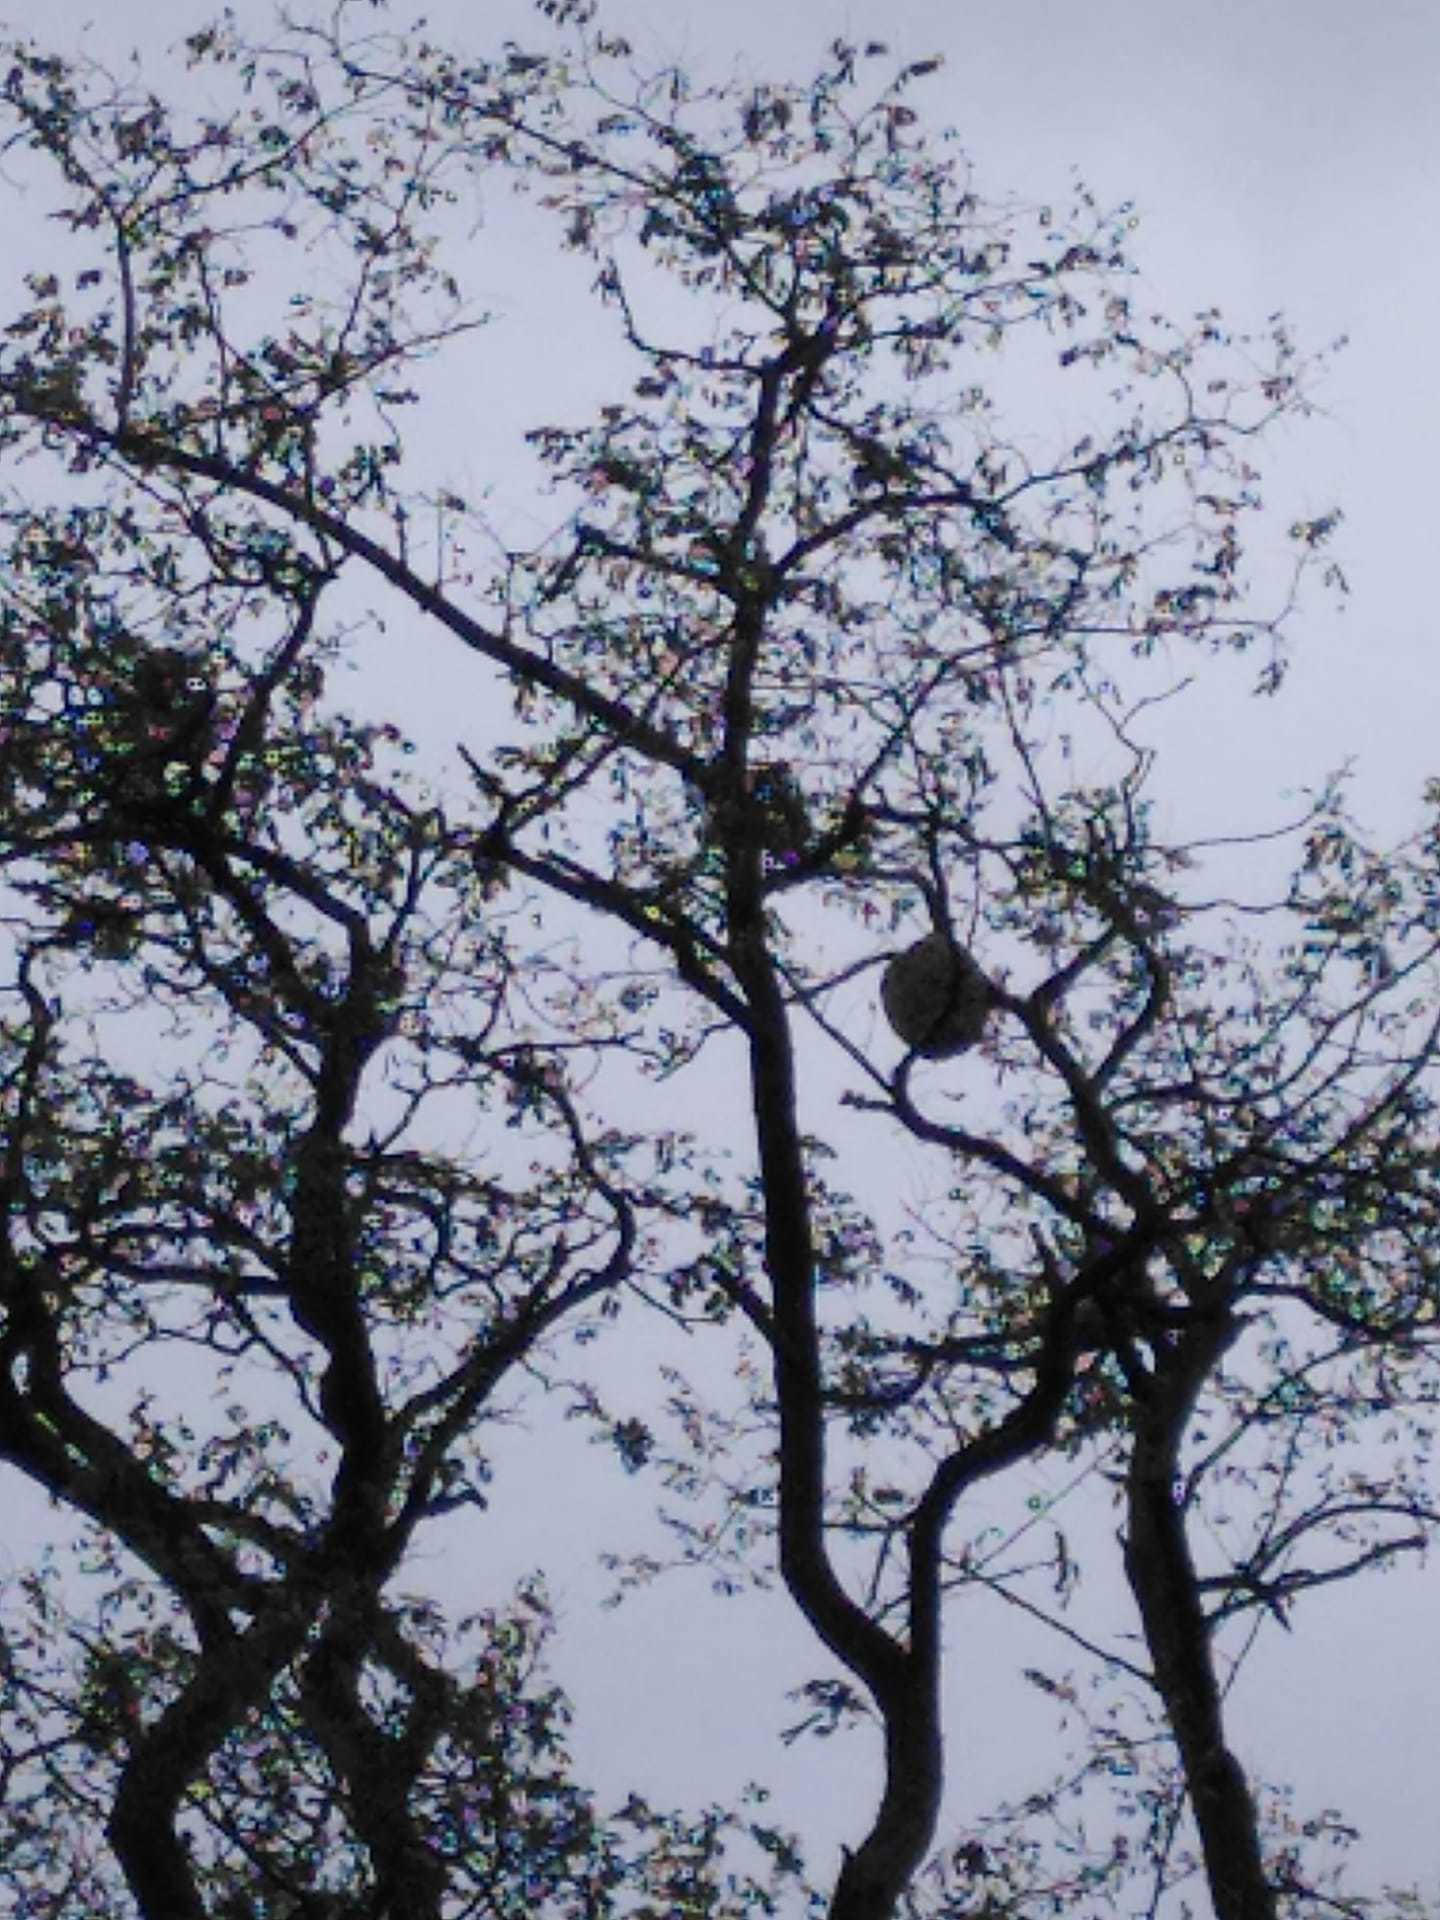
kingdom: Animalia
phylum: Arthropoda
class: Insecta
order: Hymenoptera
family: Vespidae
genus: Vespa
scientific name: Vespa velutina
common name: Asian hornet
